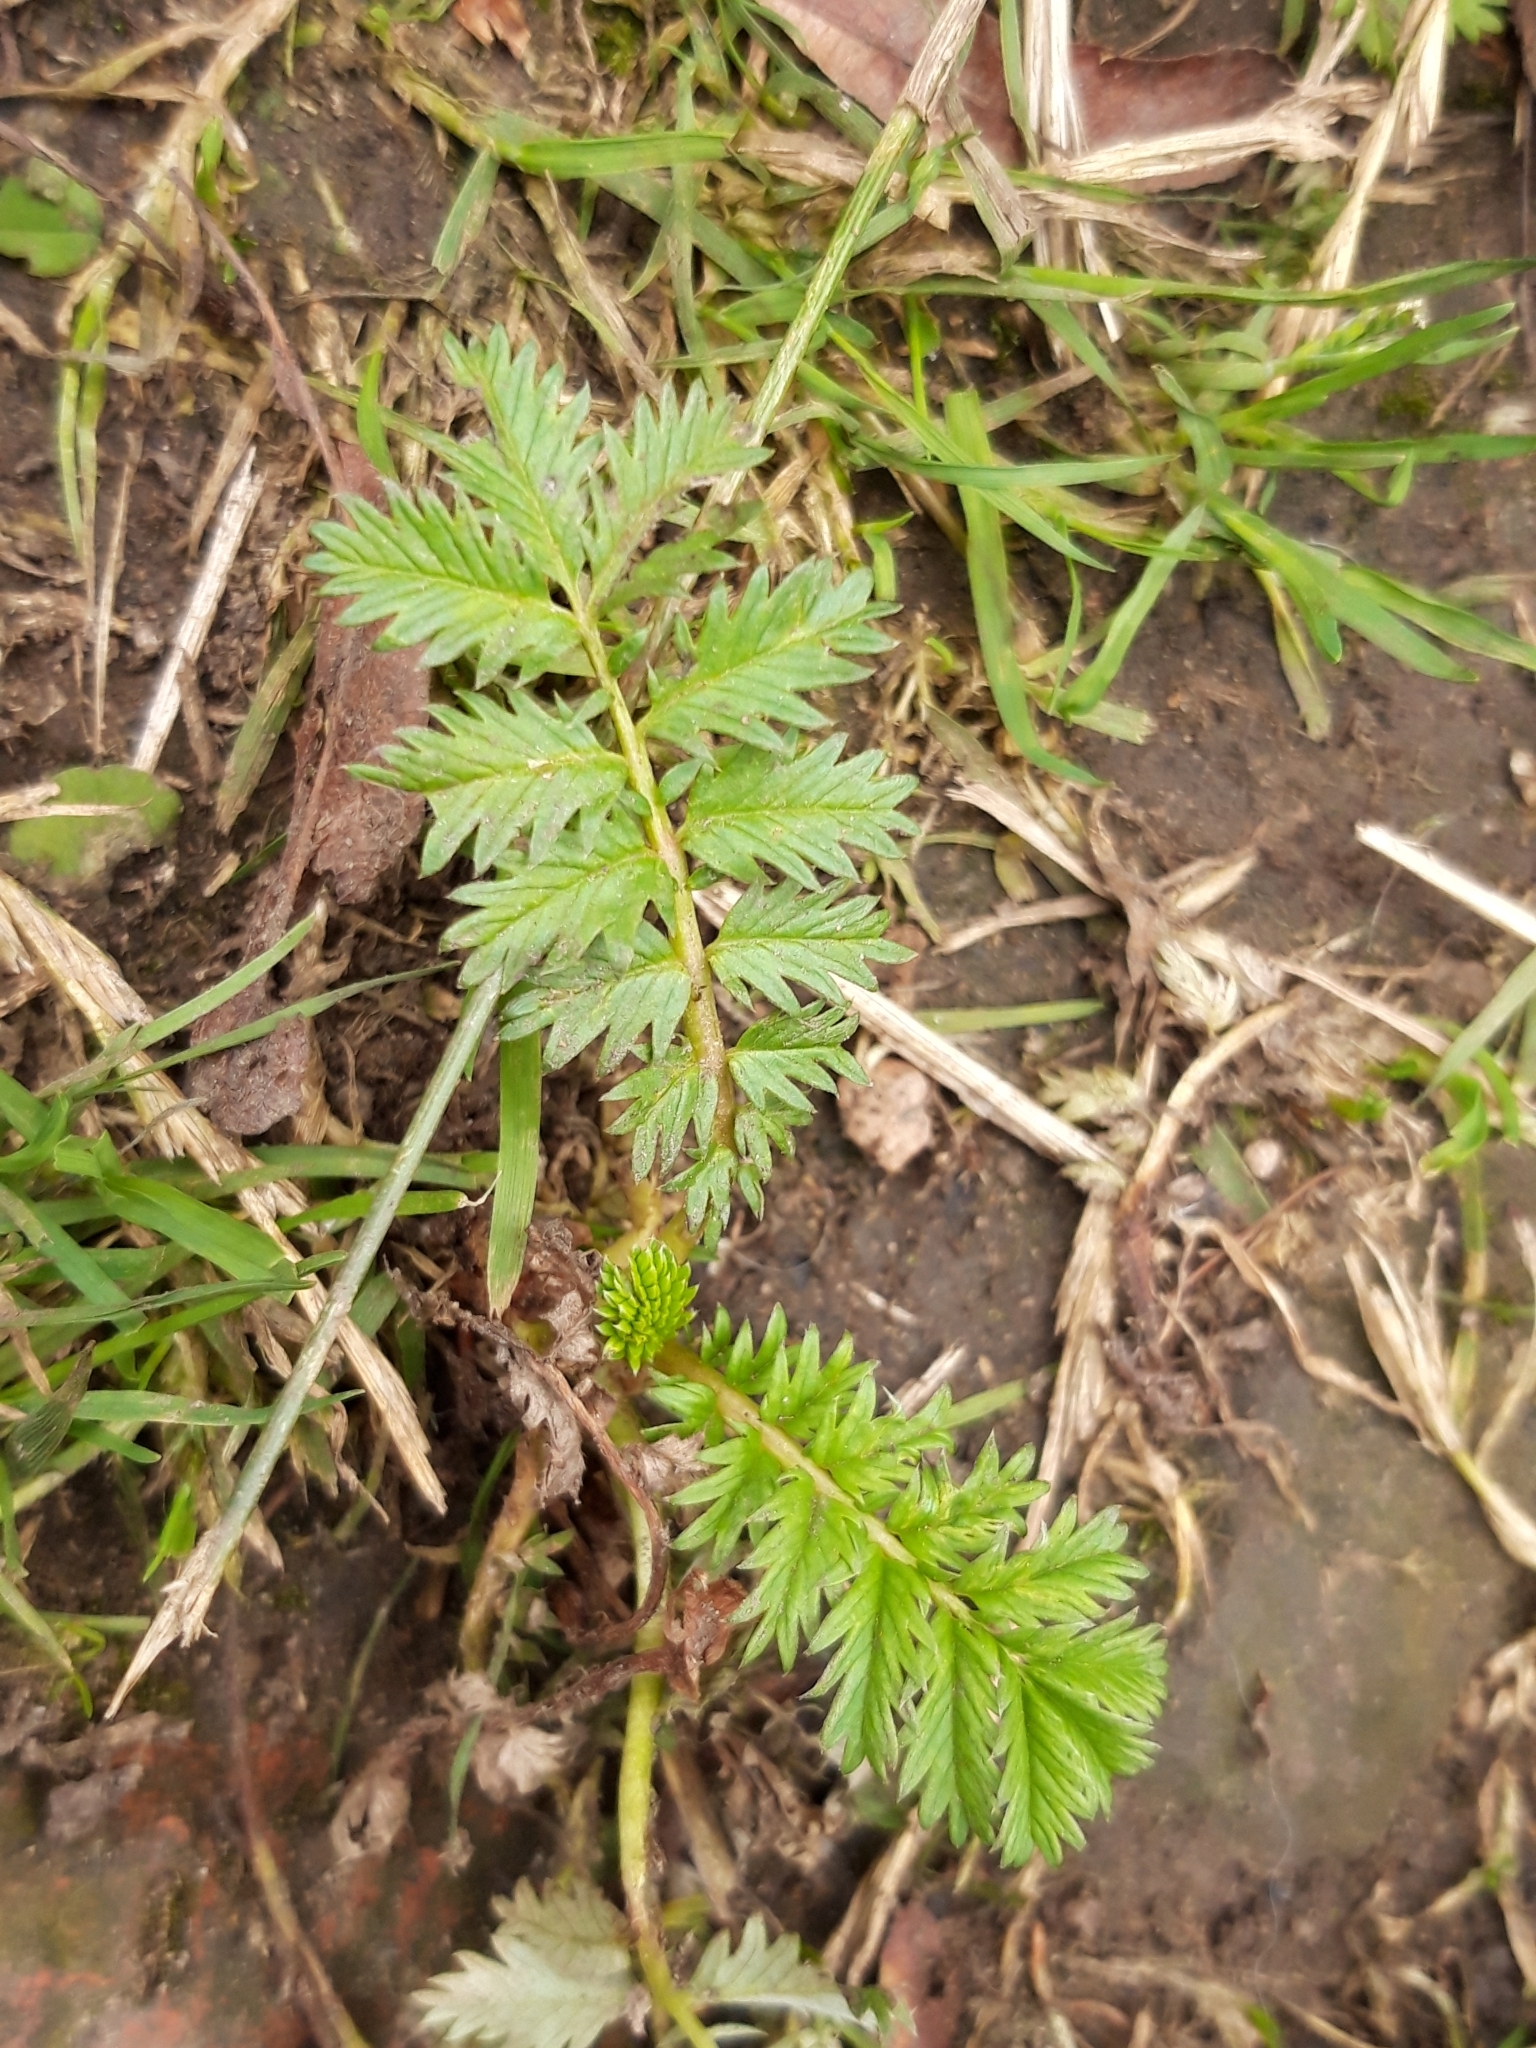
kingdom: Plantae
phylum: Tracheophyta
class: Magnoliopsida
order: Rosales
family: Rosaceae
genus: Argentina
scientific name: Argentina anserina
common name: Common silverweed
